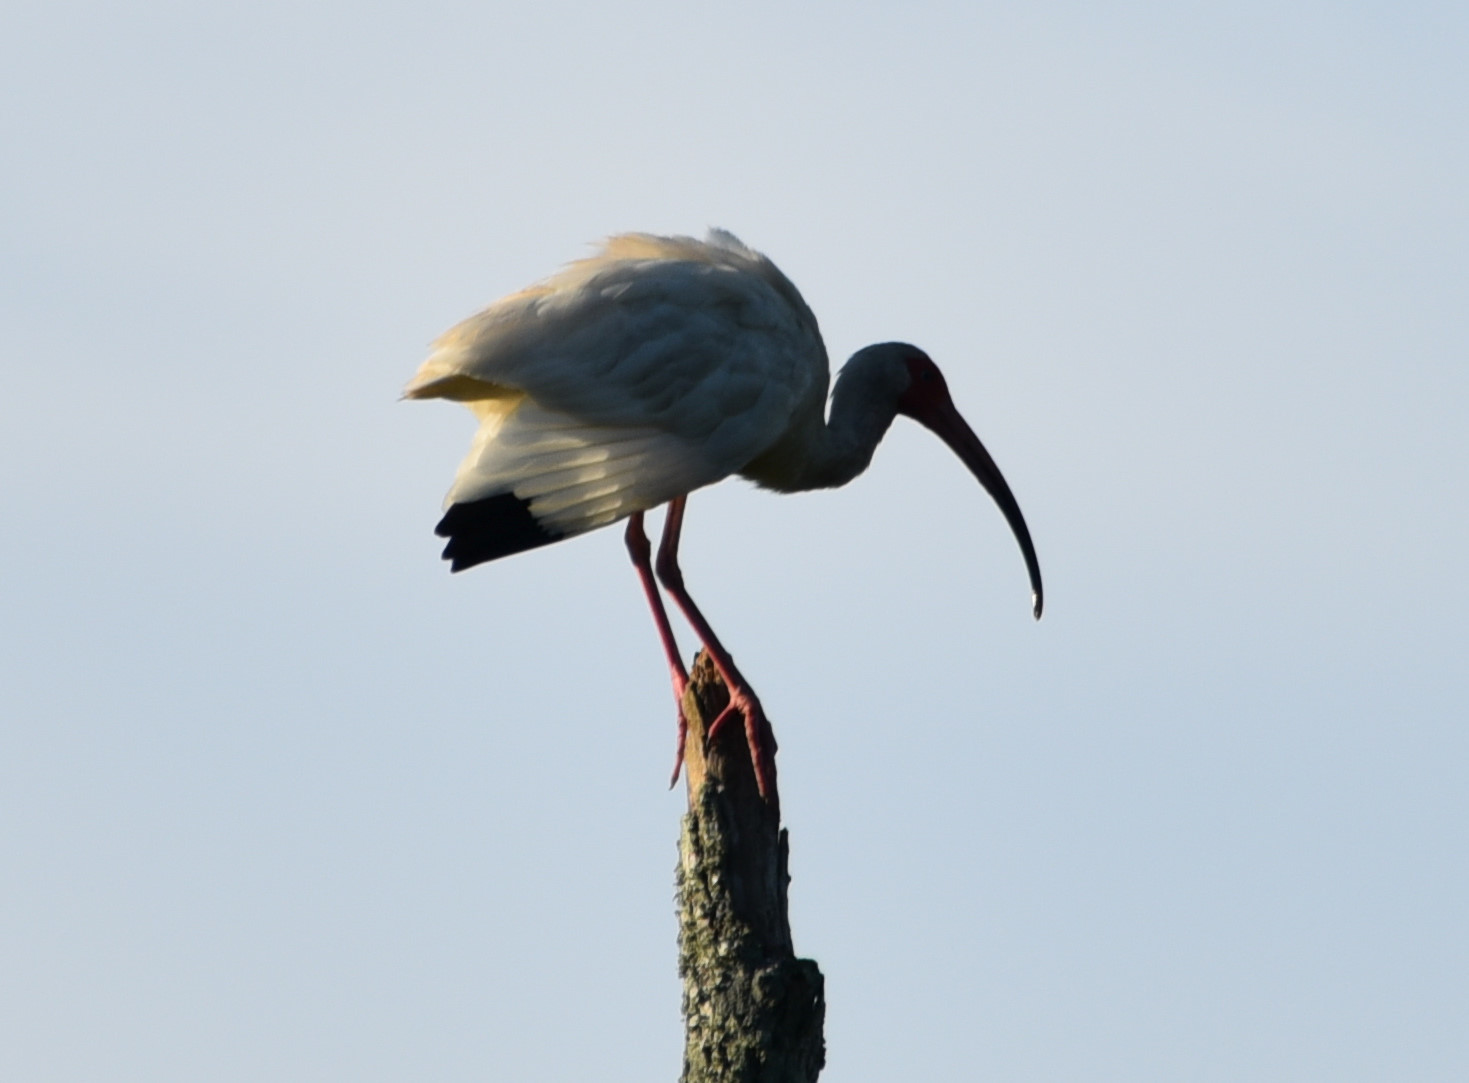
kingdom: Animalia
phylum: Chordata
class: Aves
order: Pelecaniformes
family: Threskiornithidae
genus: Eudocimus
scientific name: Eudocimus albus
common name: White ibis
